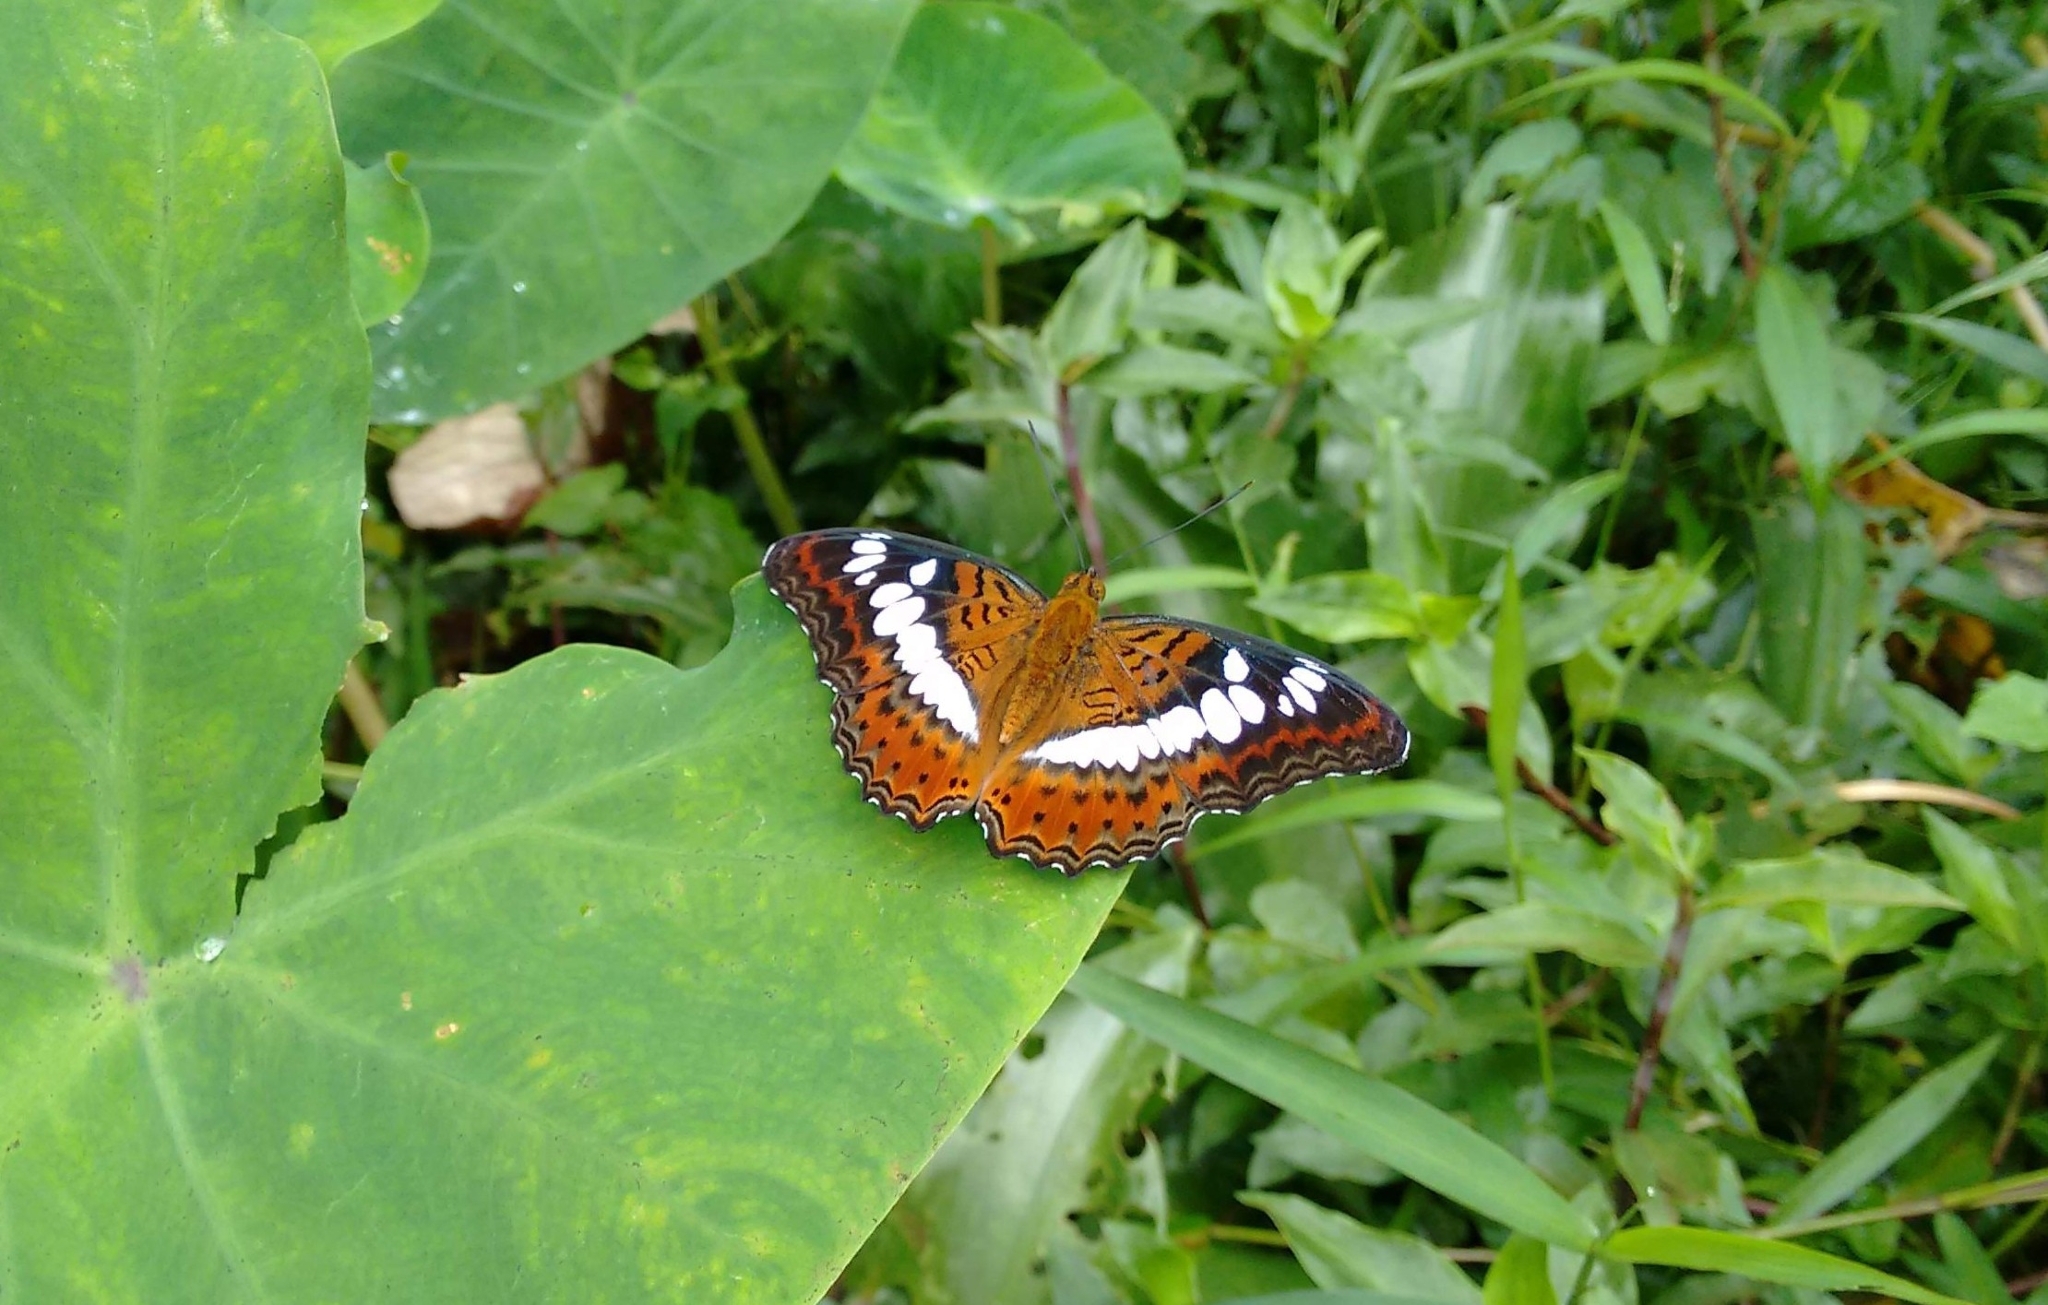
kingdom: Animalia
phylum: Arthropoda
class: Insecta
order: Lepidoptera
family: Nymphalidae
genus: Limenitis
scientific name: Limenitis Moduza procris
